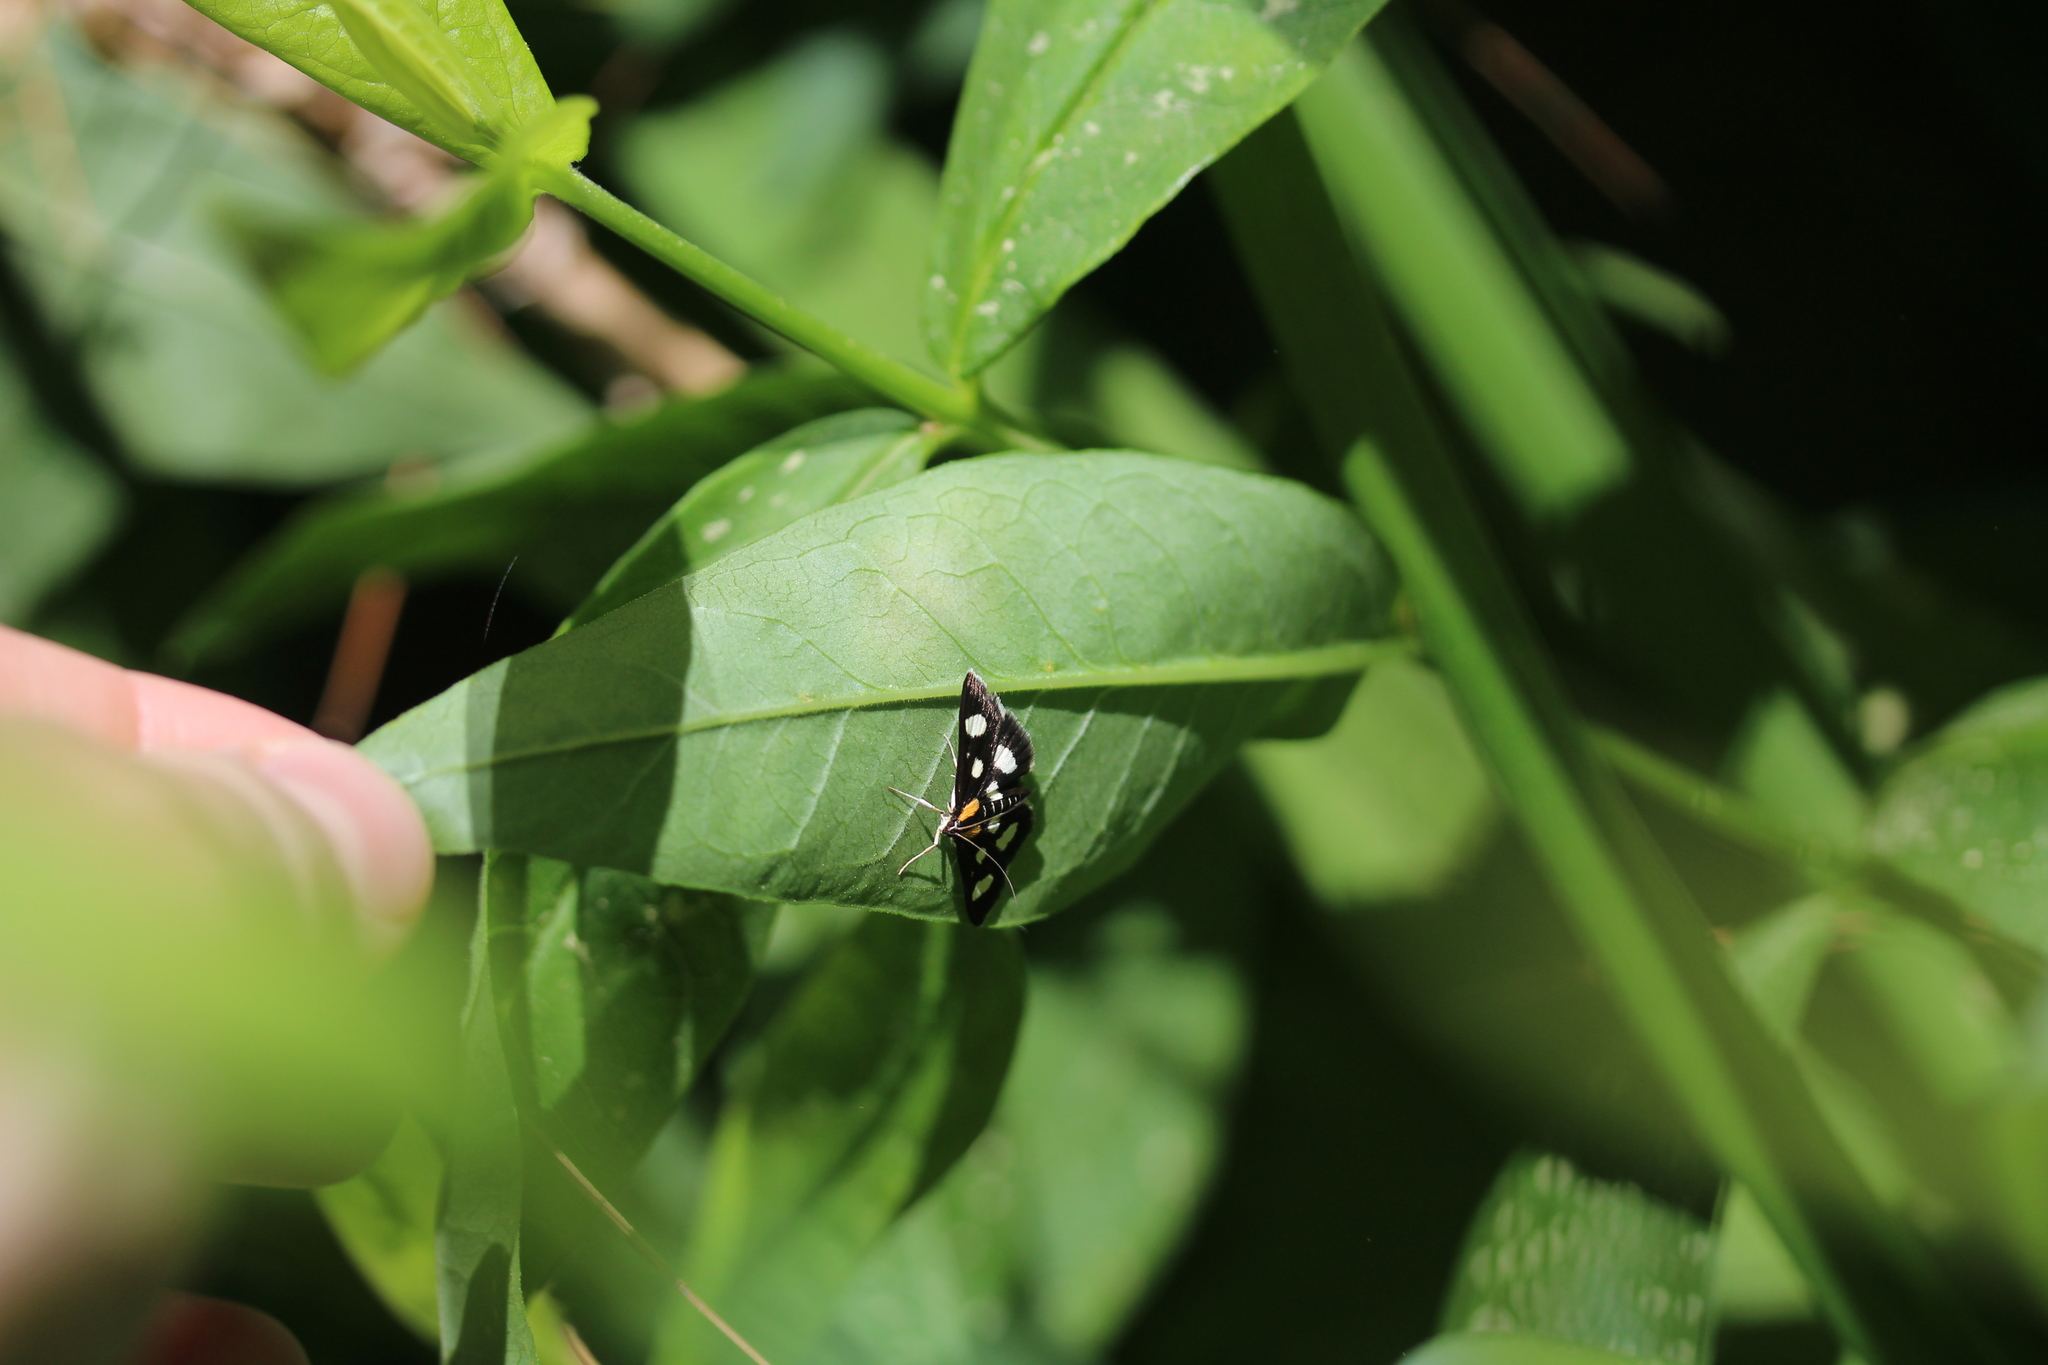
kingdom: Animalia
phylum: Arthropoda
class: Insecta
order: Lepidoptera
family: Crambidae
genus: Anania
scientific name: Anania funebris
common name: White-spotted sable moth
